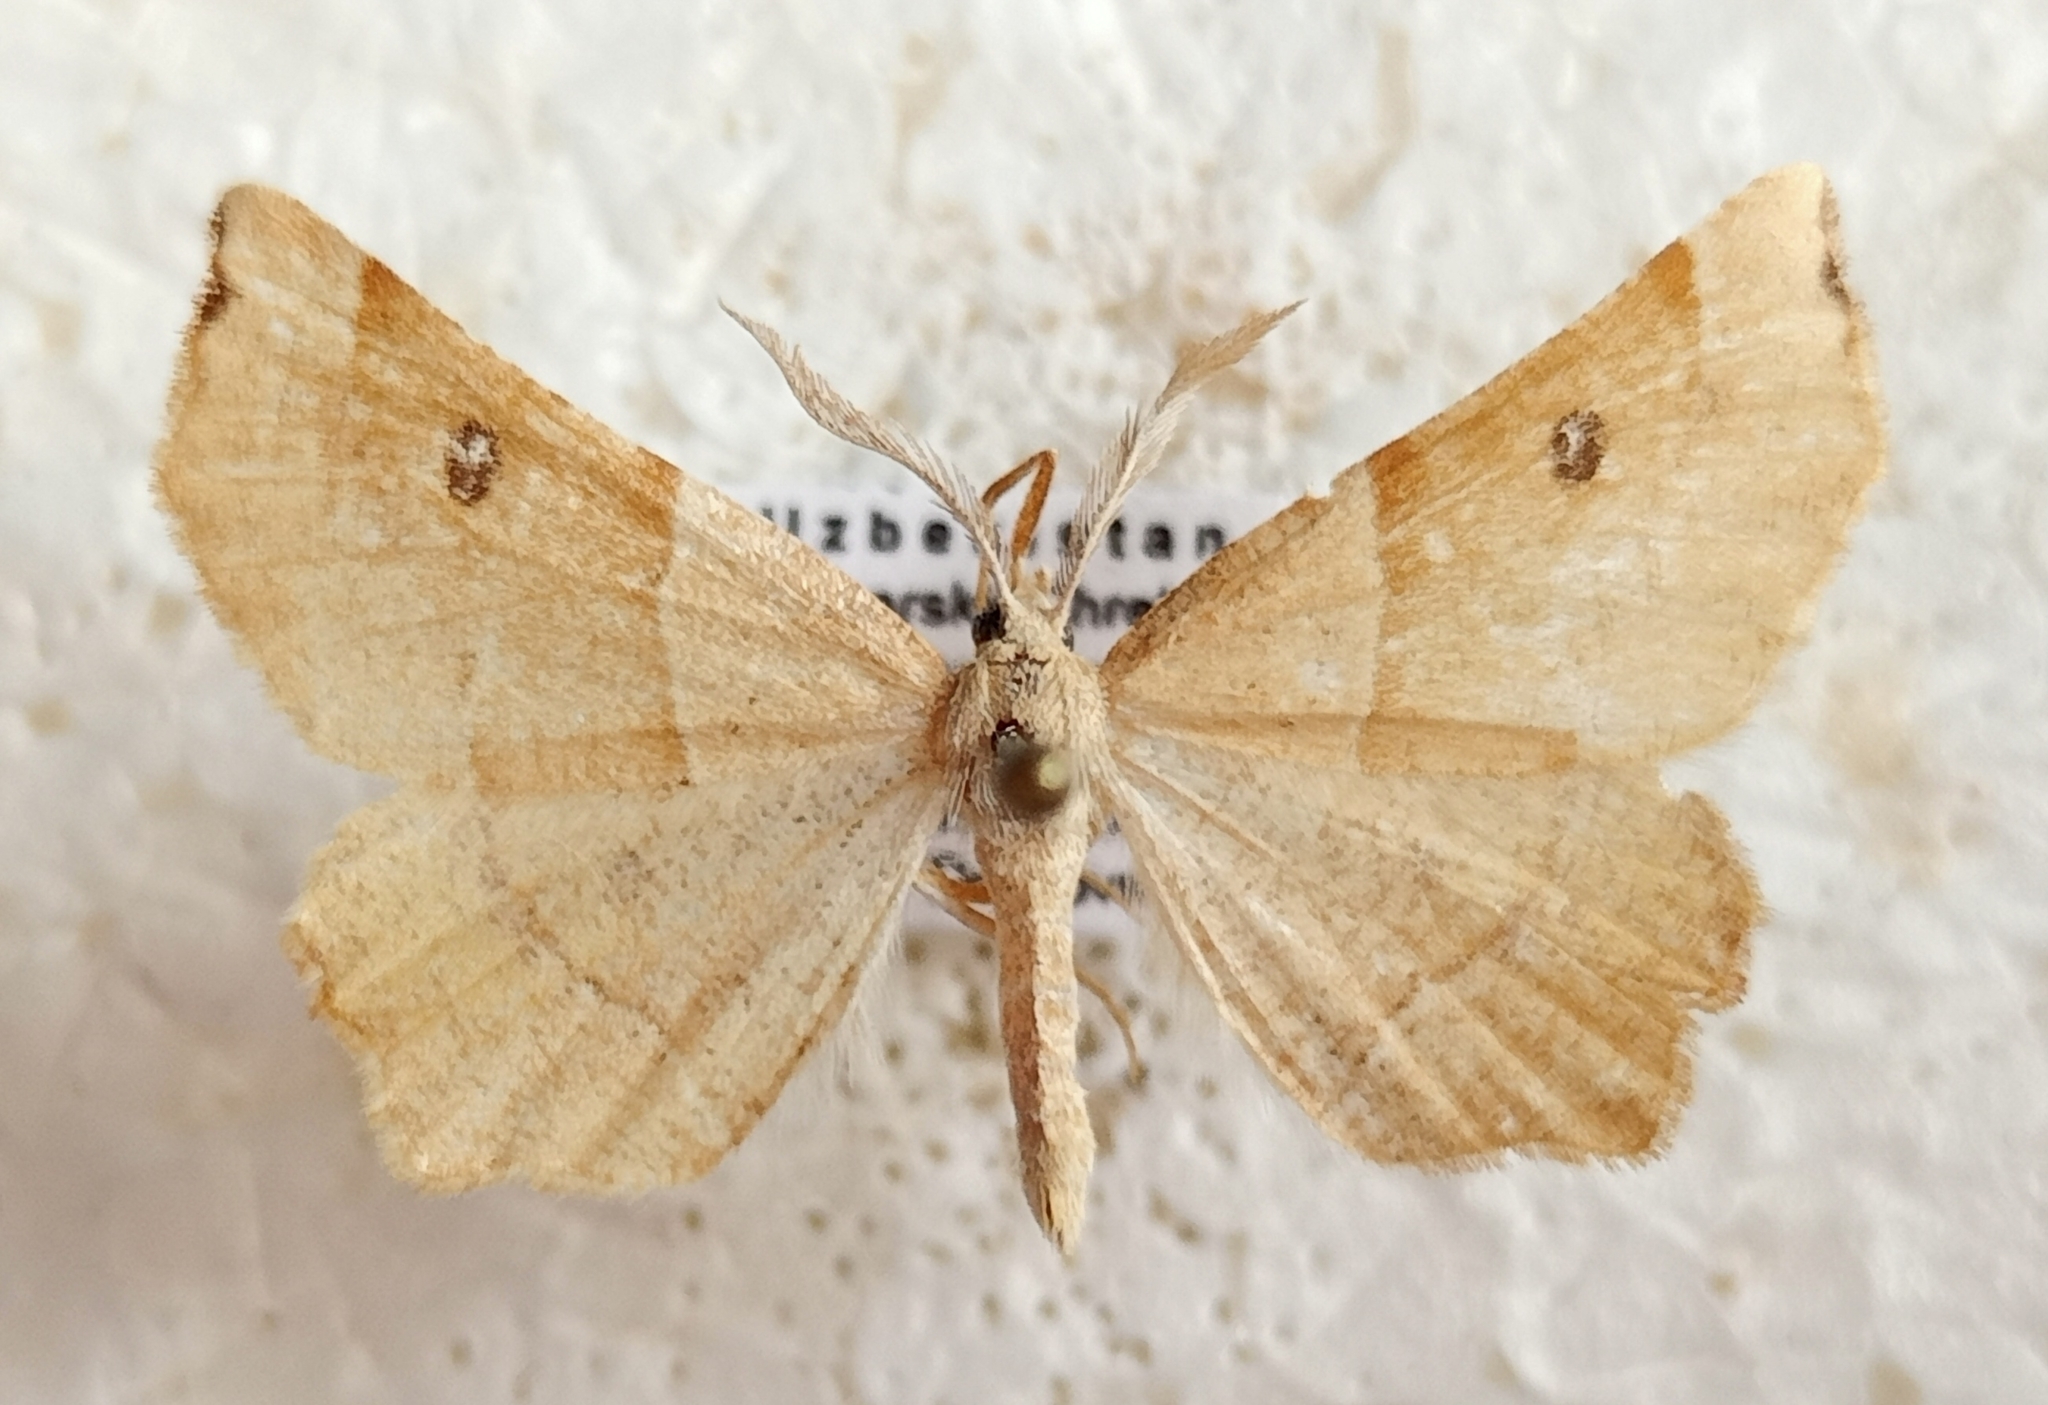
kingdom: Animalia
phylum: Arthropoda
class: Insecta
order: Lepidoptera
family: Geometridae
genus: Artemidora
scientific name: Artemidora
